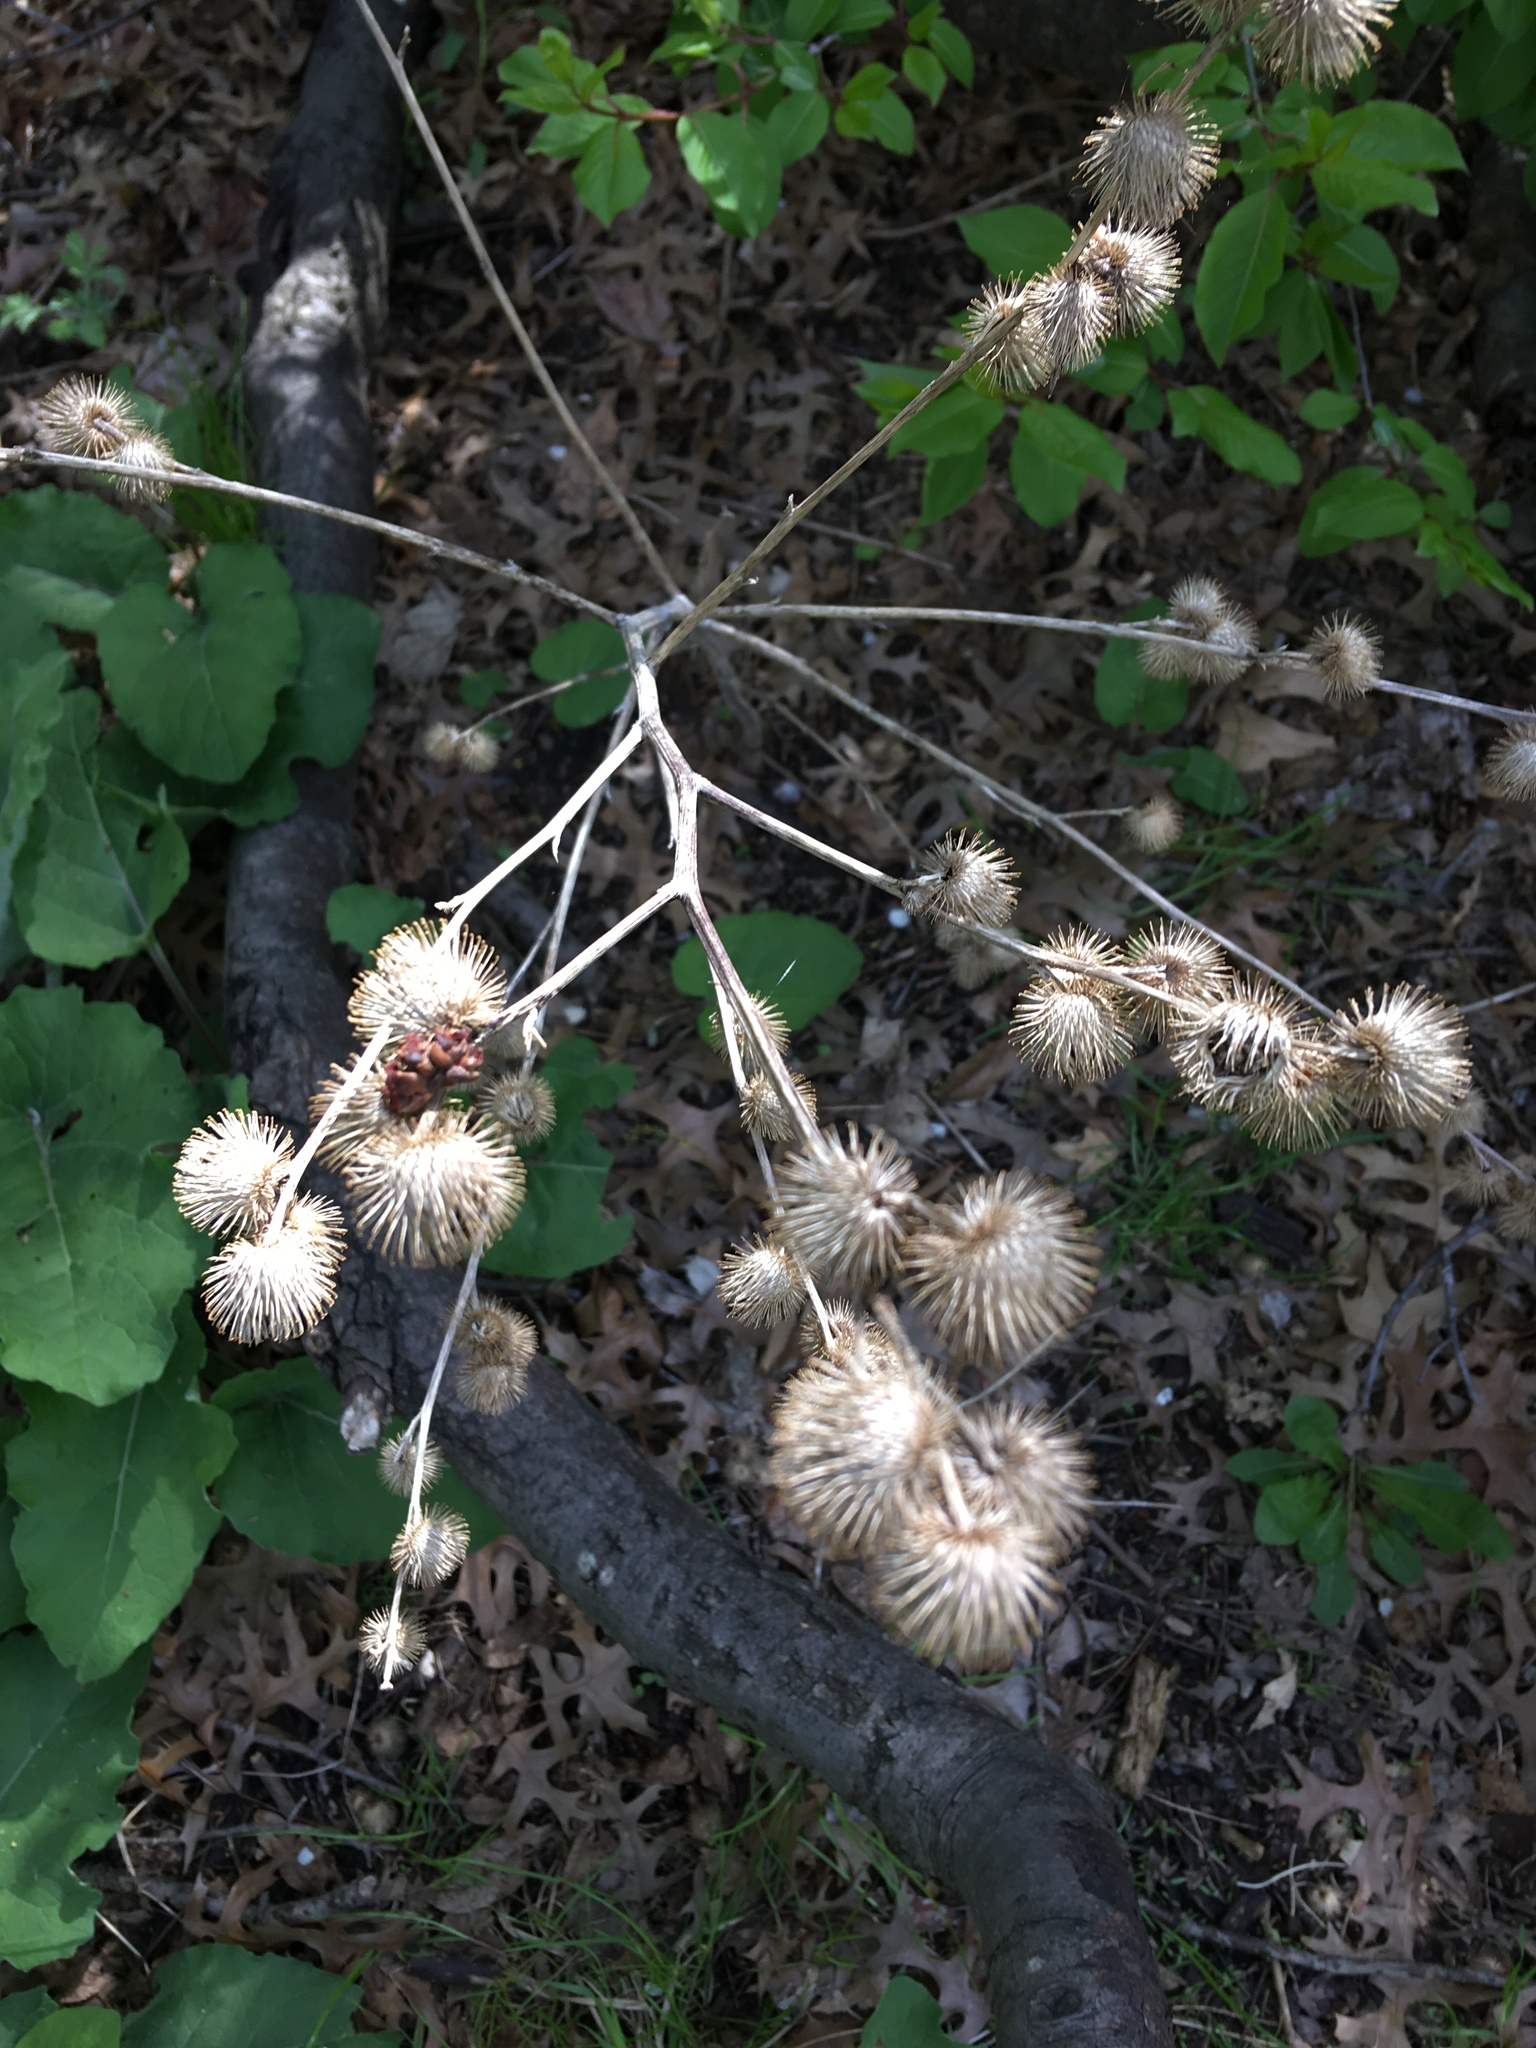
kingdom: Plantae
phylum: Tracheophyta
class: Magnoliopsida
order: Asterales
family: Asteraceae
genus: Arctium
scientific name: Arctium minus
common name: Lesser burdock
